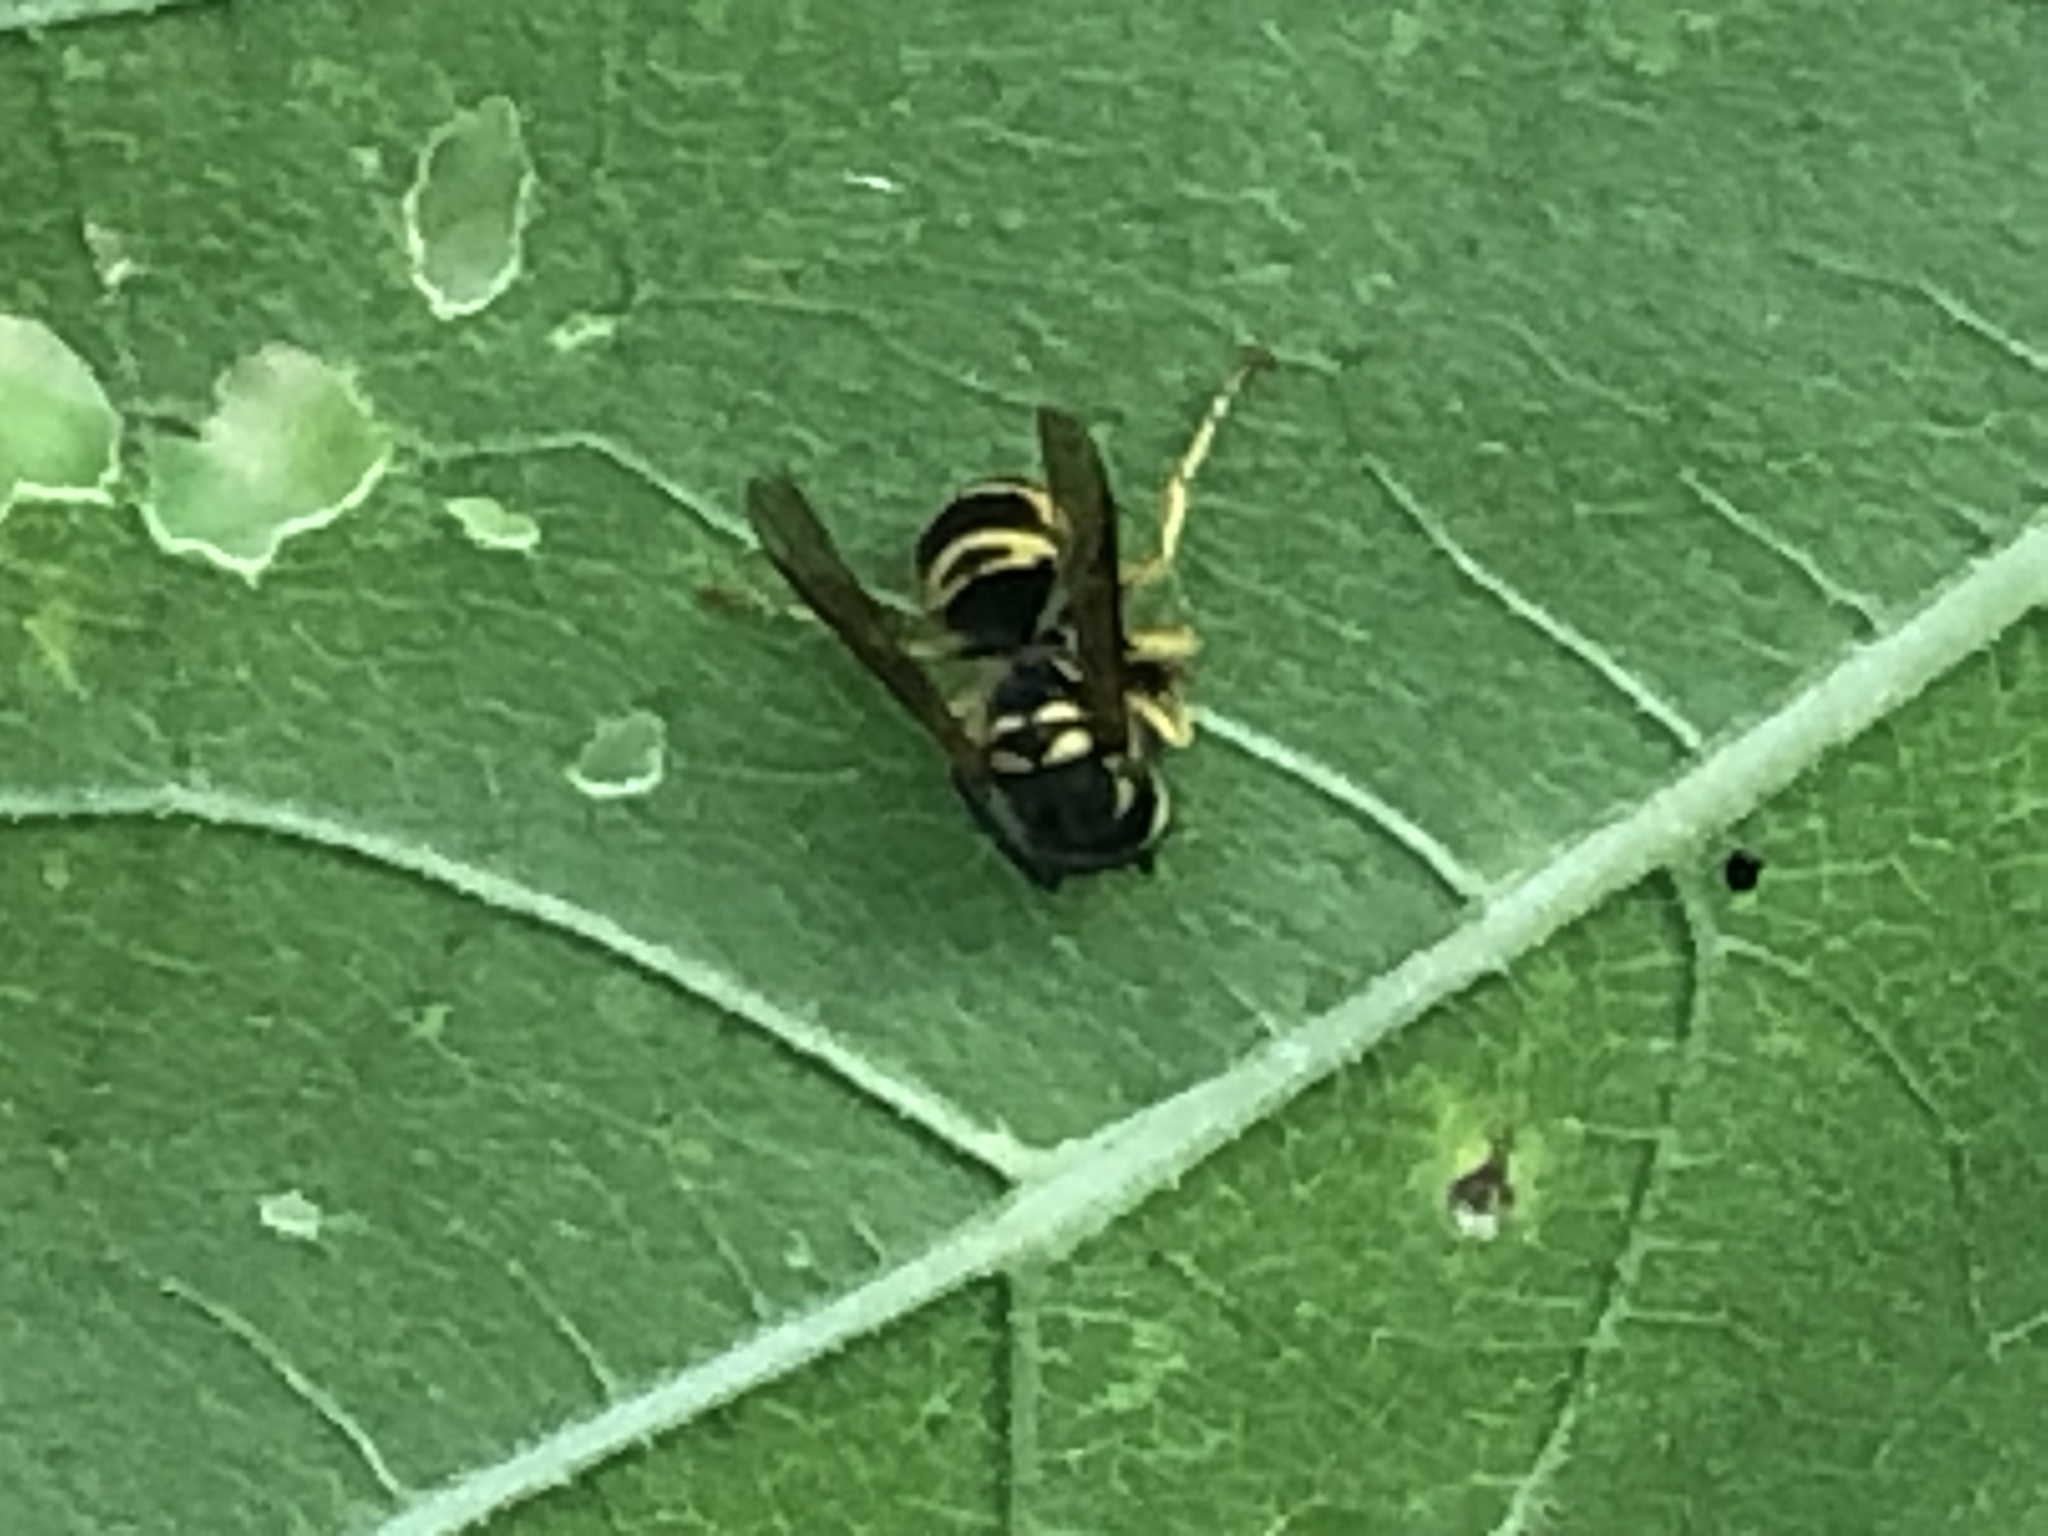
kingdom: Animalia
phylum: Arthropoda
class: Insecta
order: Hymenoptera
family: Vespidae
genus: Vespula
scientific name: Vespula maculifrons
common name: Eastern yellowjacket
